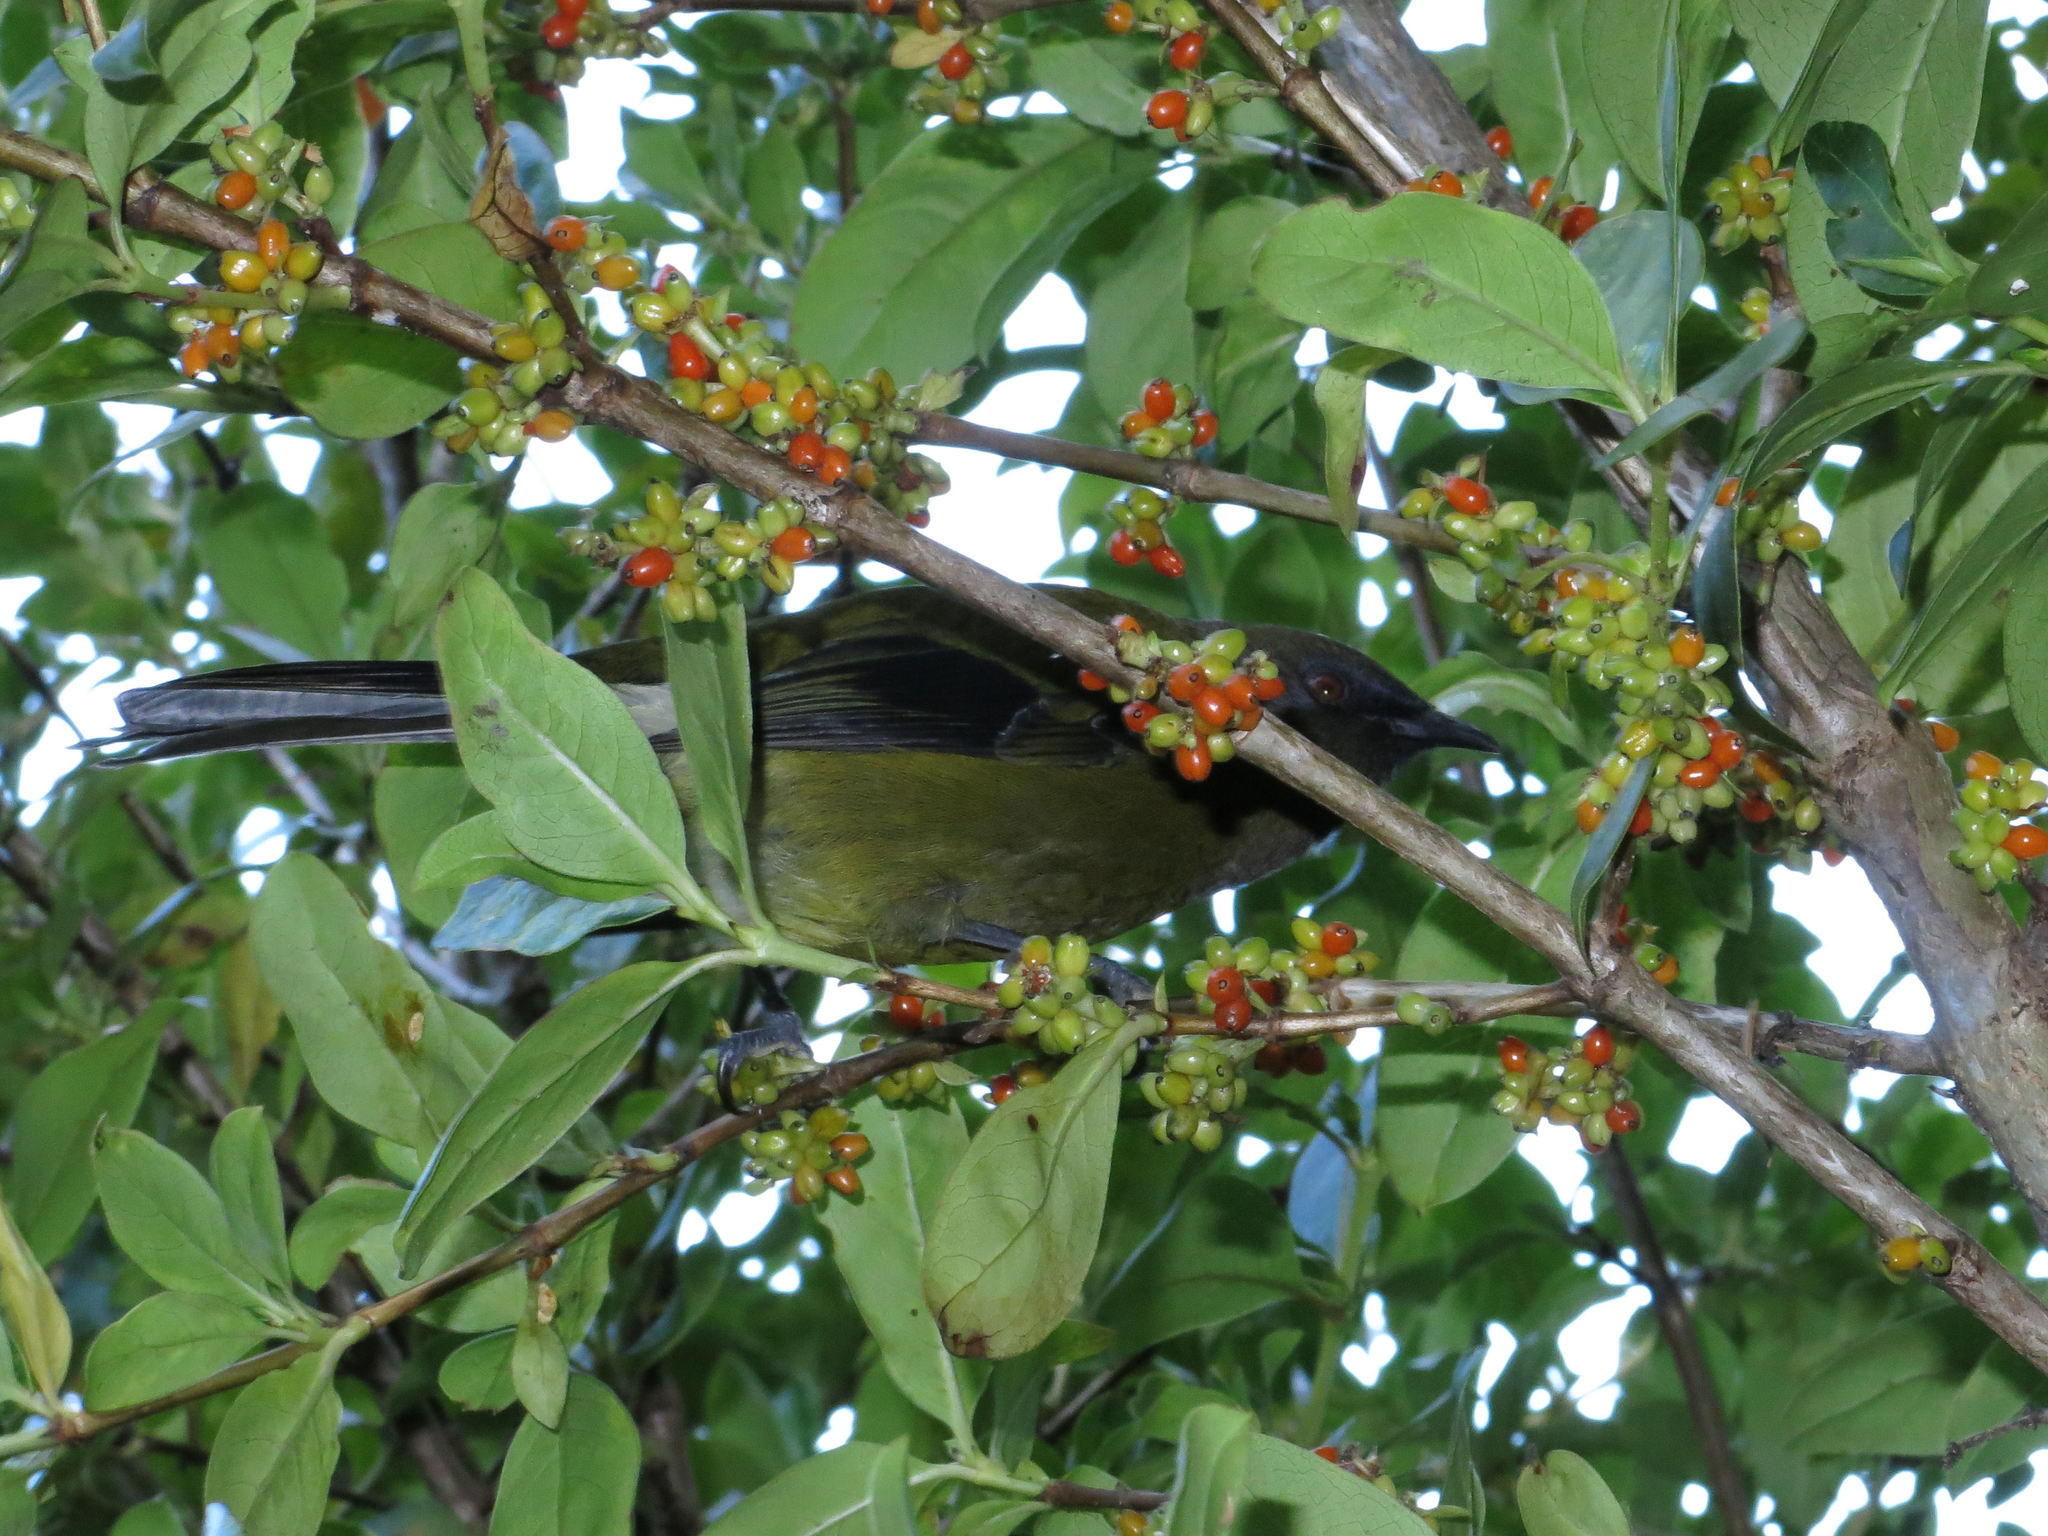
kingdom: Animalia
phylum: Chordata
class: Aves
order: Passeriformes
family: Meliphagidae
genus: Anthornis
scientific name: Anthornis melanura
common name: New zealand bellbird
